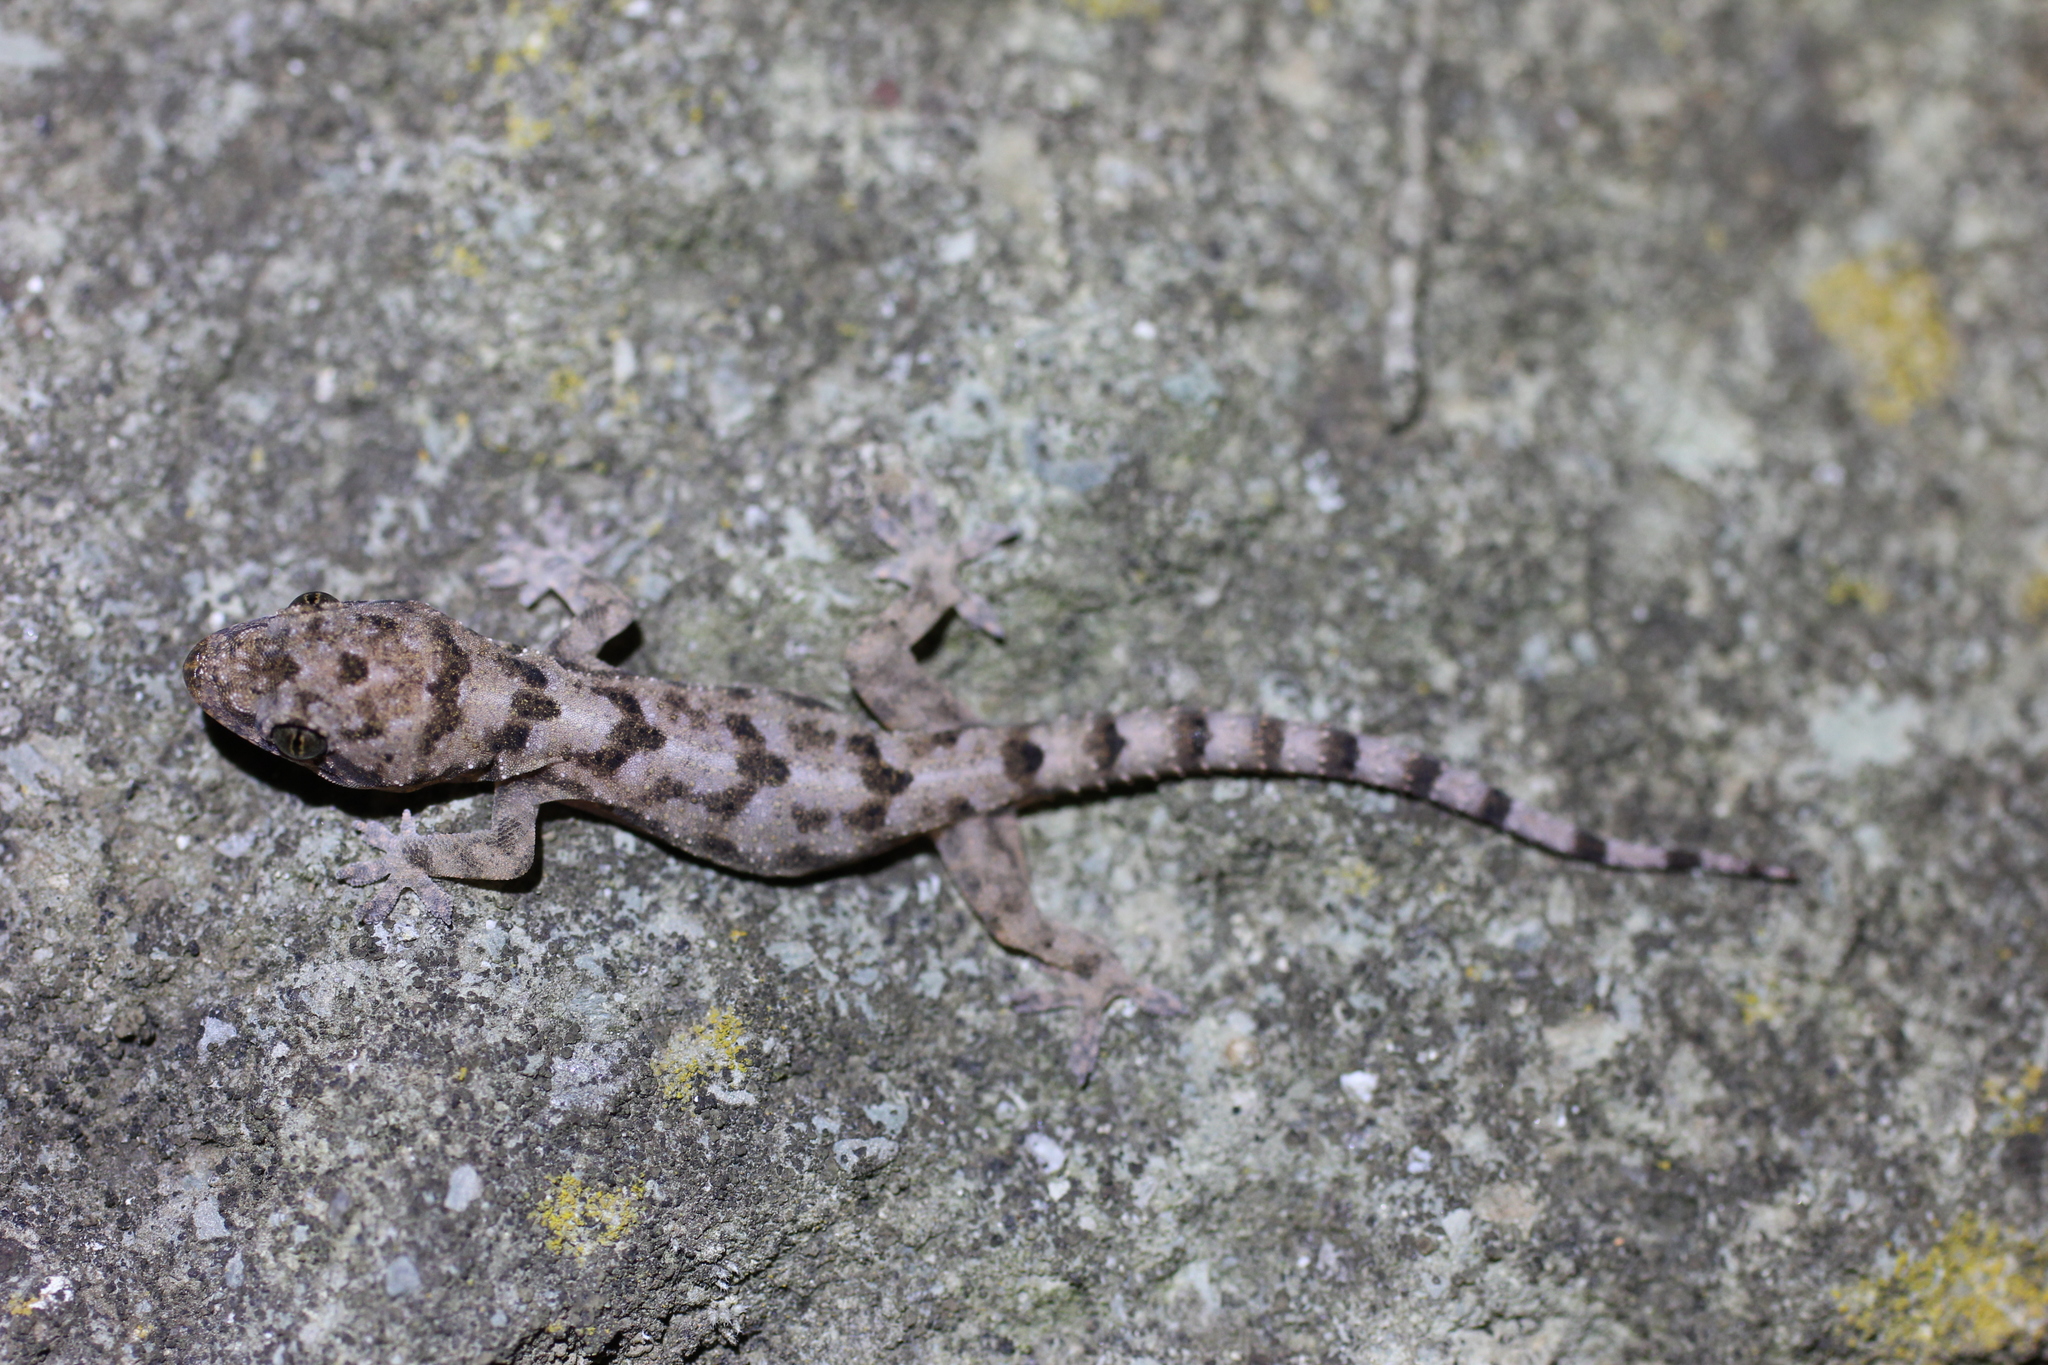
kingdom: Animalia
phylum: Chordata
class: Squamata
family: Gekkonidae
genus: Hemidactylus
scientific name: Hemidactylus mabouia
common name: House gecko
